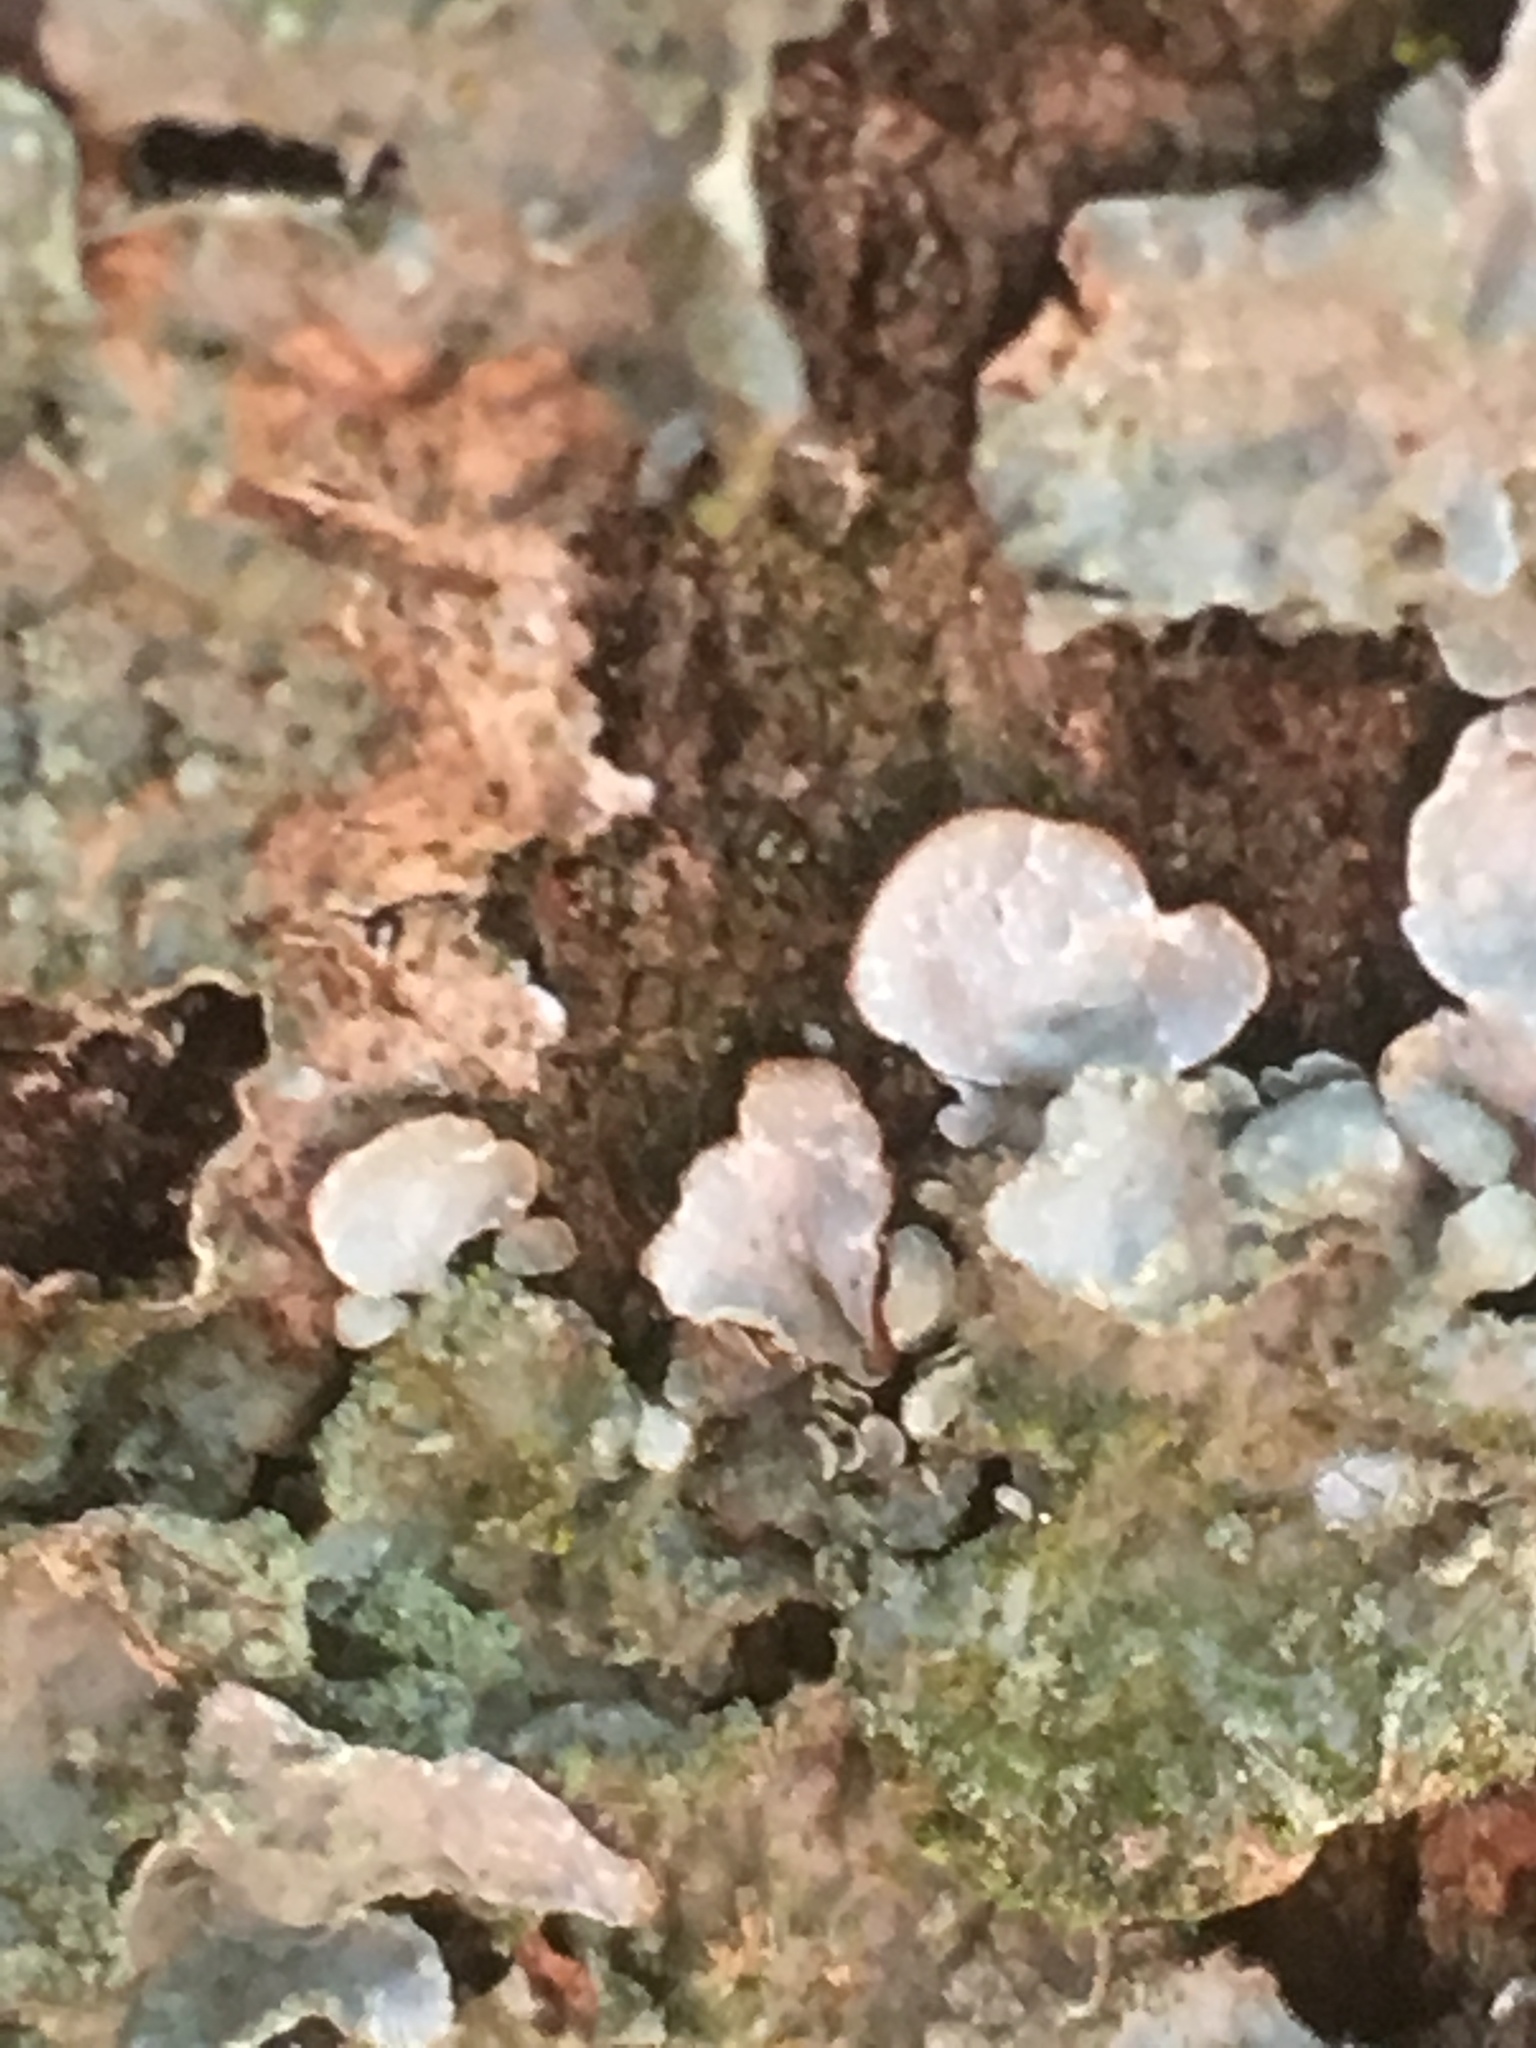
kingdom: Fungi
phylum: Ascomycota
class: Lecanoromycetes
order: Lecanorales
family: Parmeliaceae
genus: Parmelia
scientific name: Parmelia sulcata
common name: Netted shield lichen
